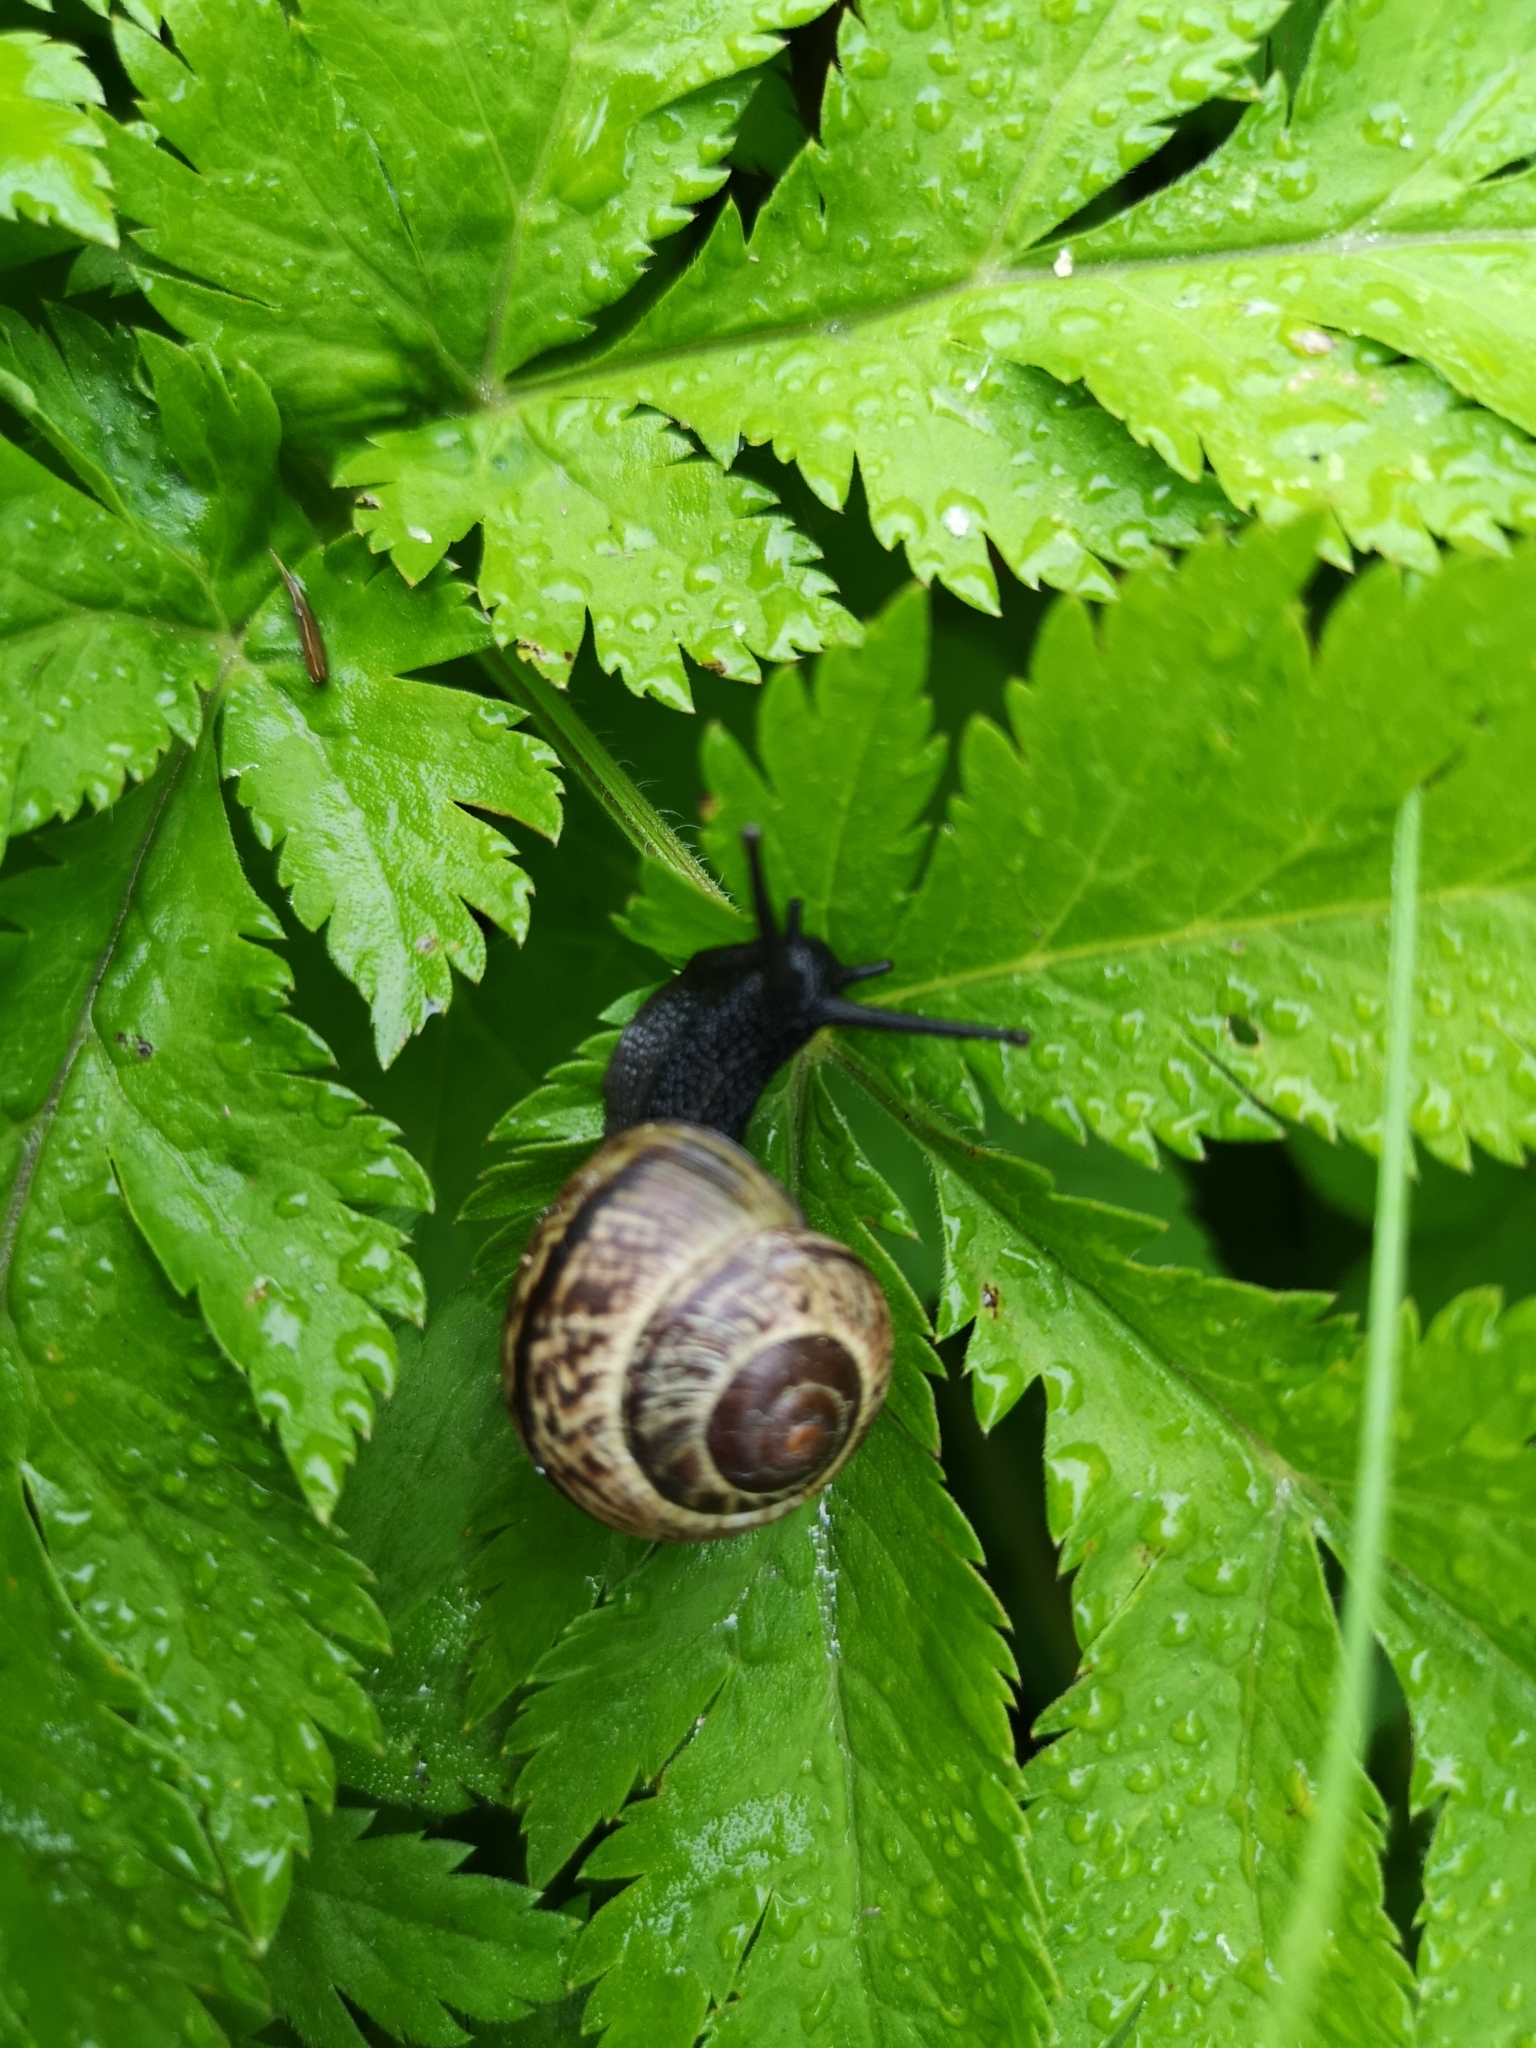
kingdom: Animalia
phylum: Mollusca
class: Gastropoda
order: Stylommatophora
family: Helicidae
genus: Arianta
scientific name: Arianta arbustorum
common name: Copse snail
